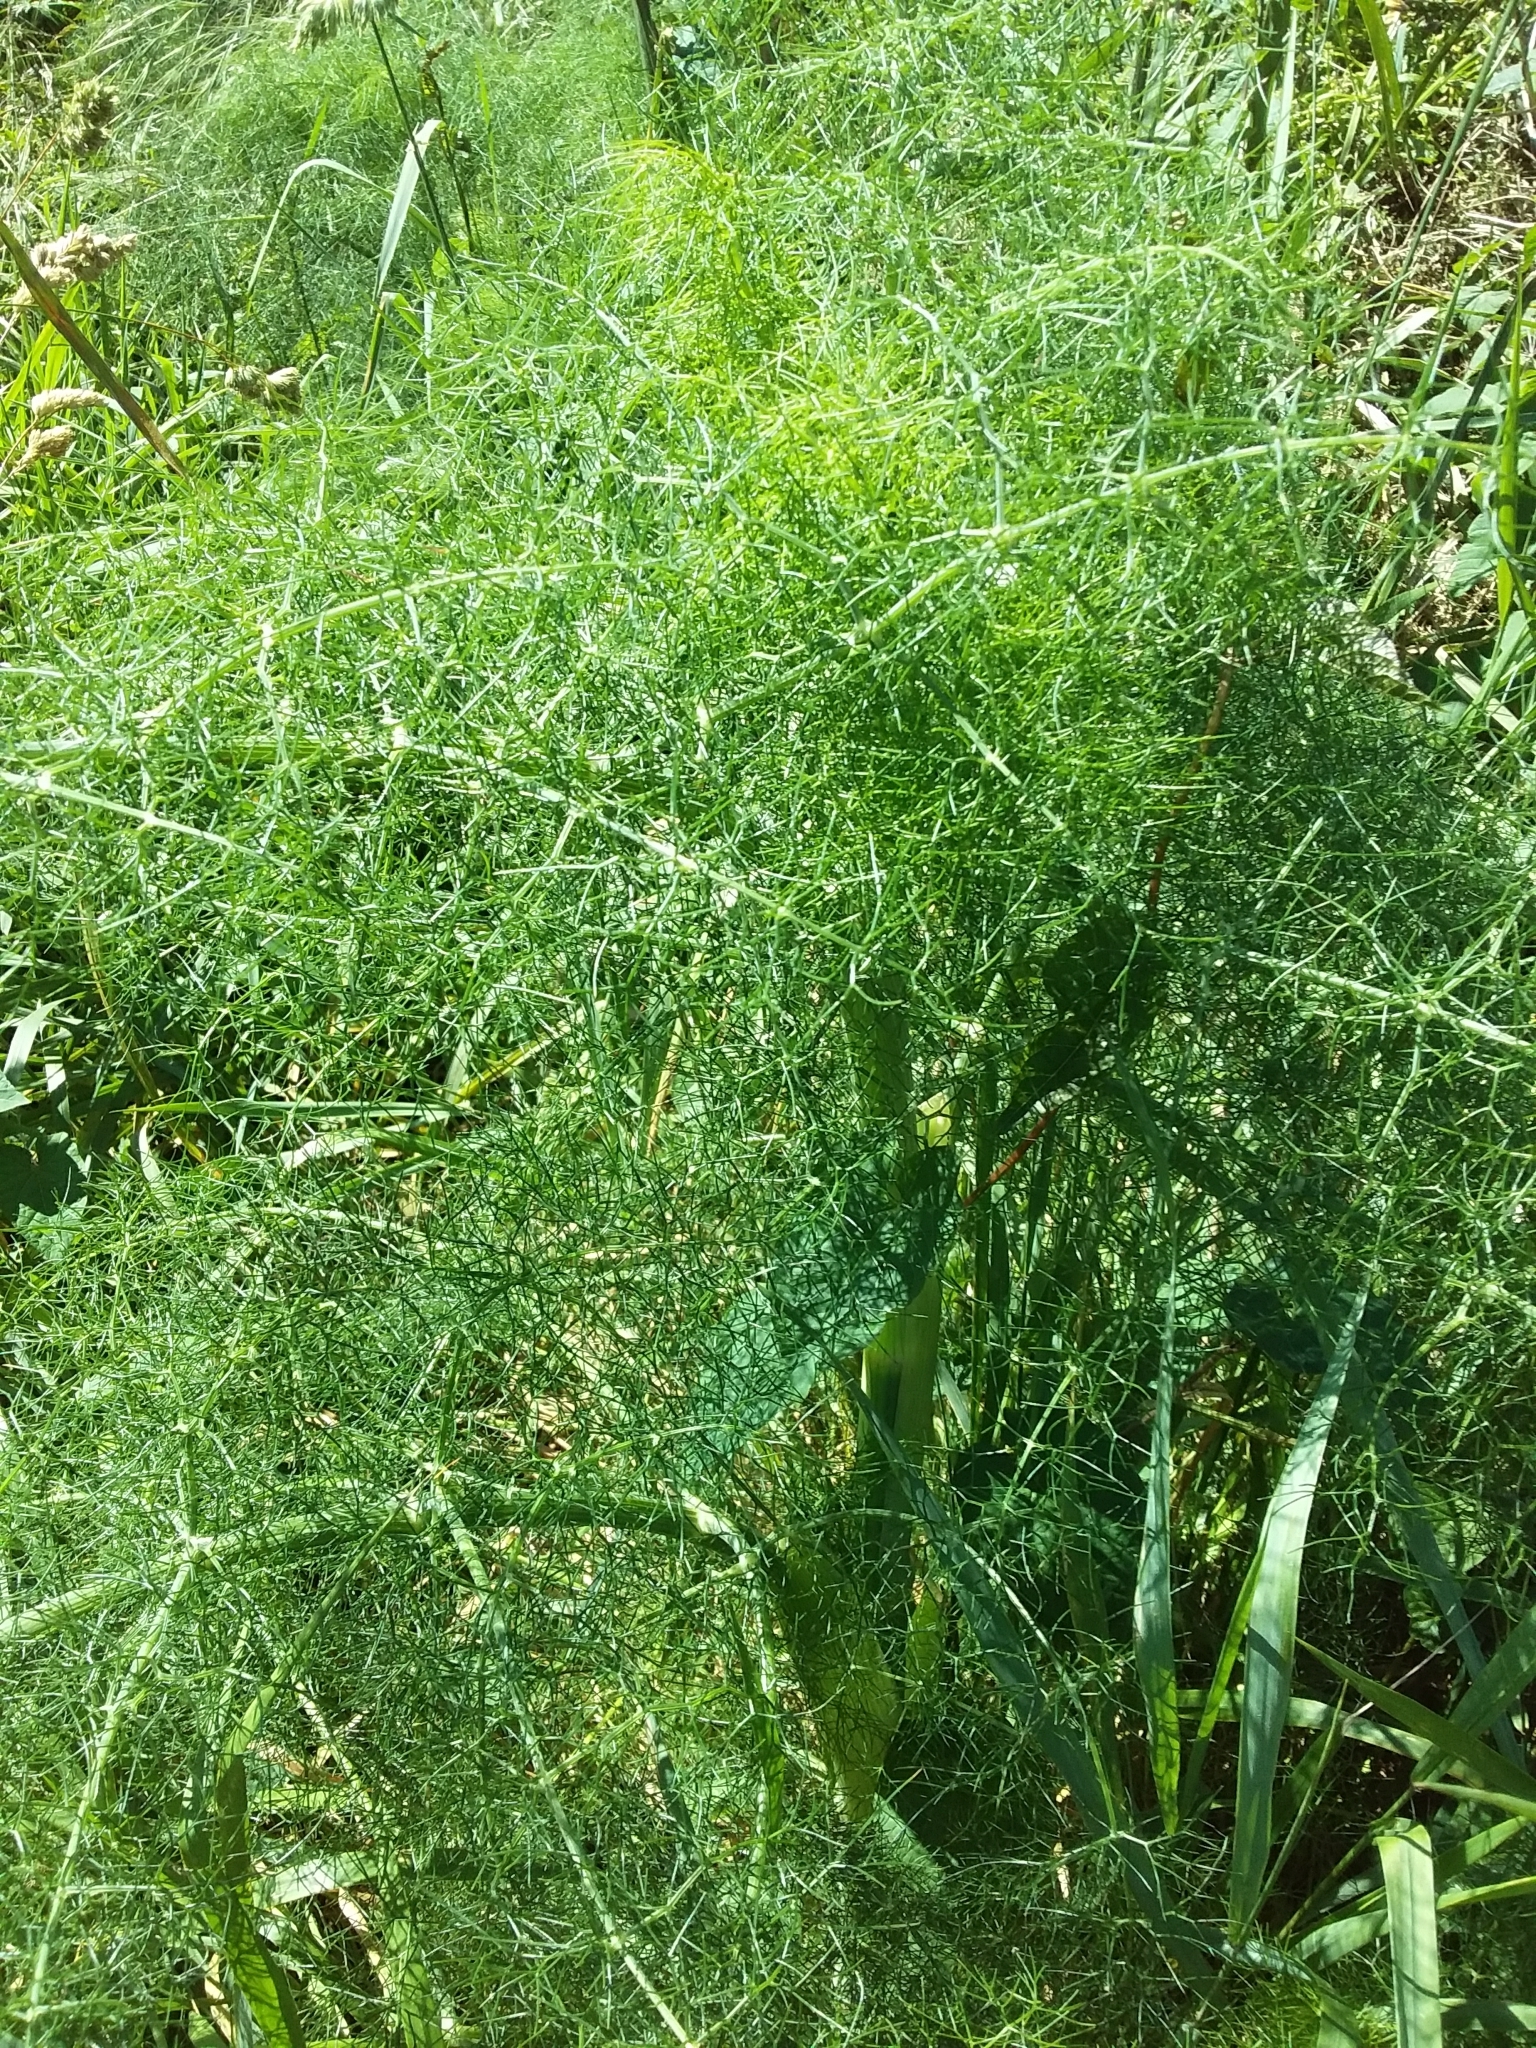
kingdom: Plantae
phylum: Tracheophyta
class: Magnoliopsida
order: Apiales
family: Apiaceae
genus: Foeniculum
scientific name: Foeniculum vulgare
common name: Fennel
